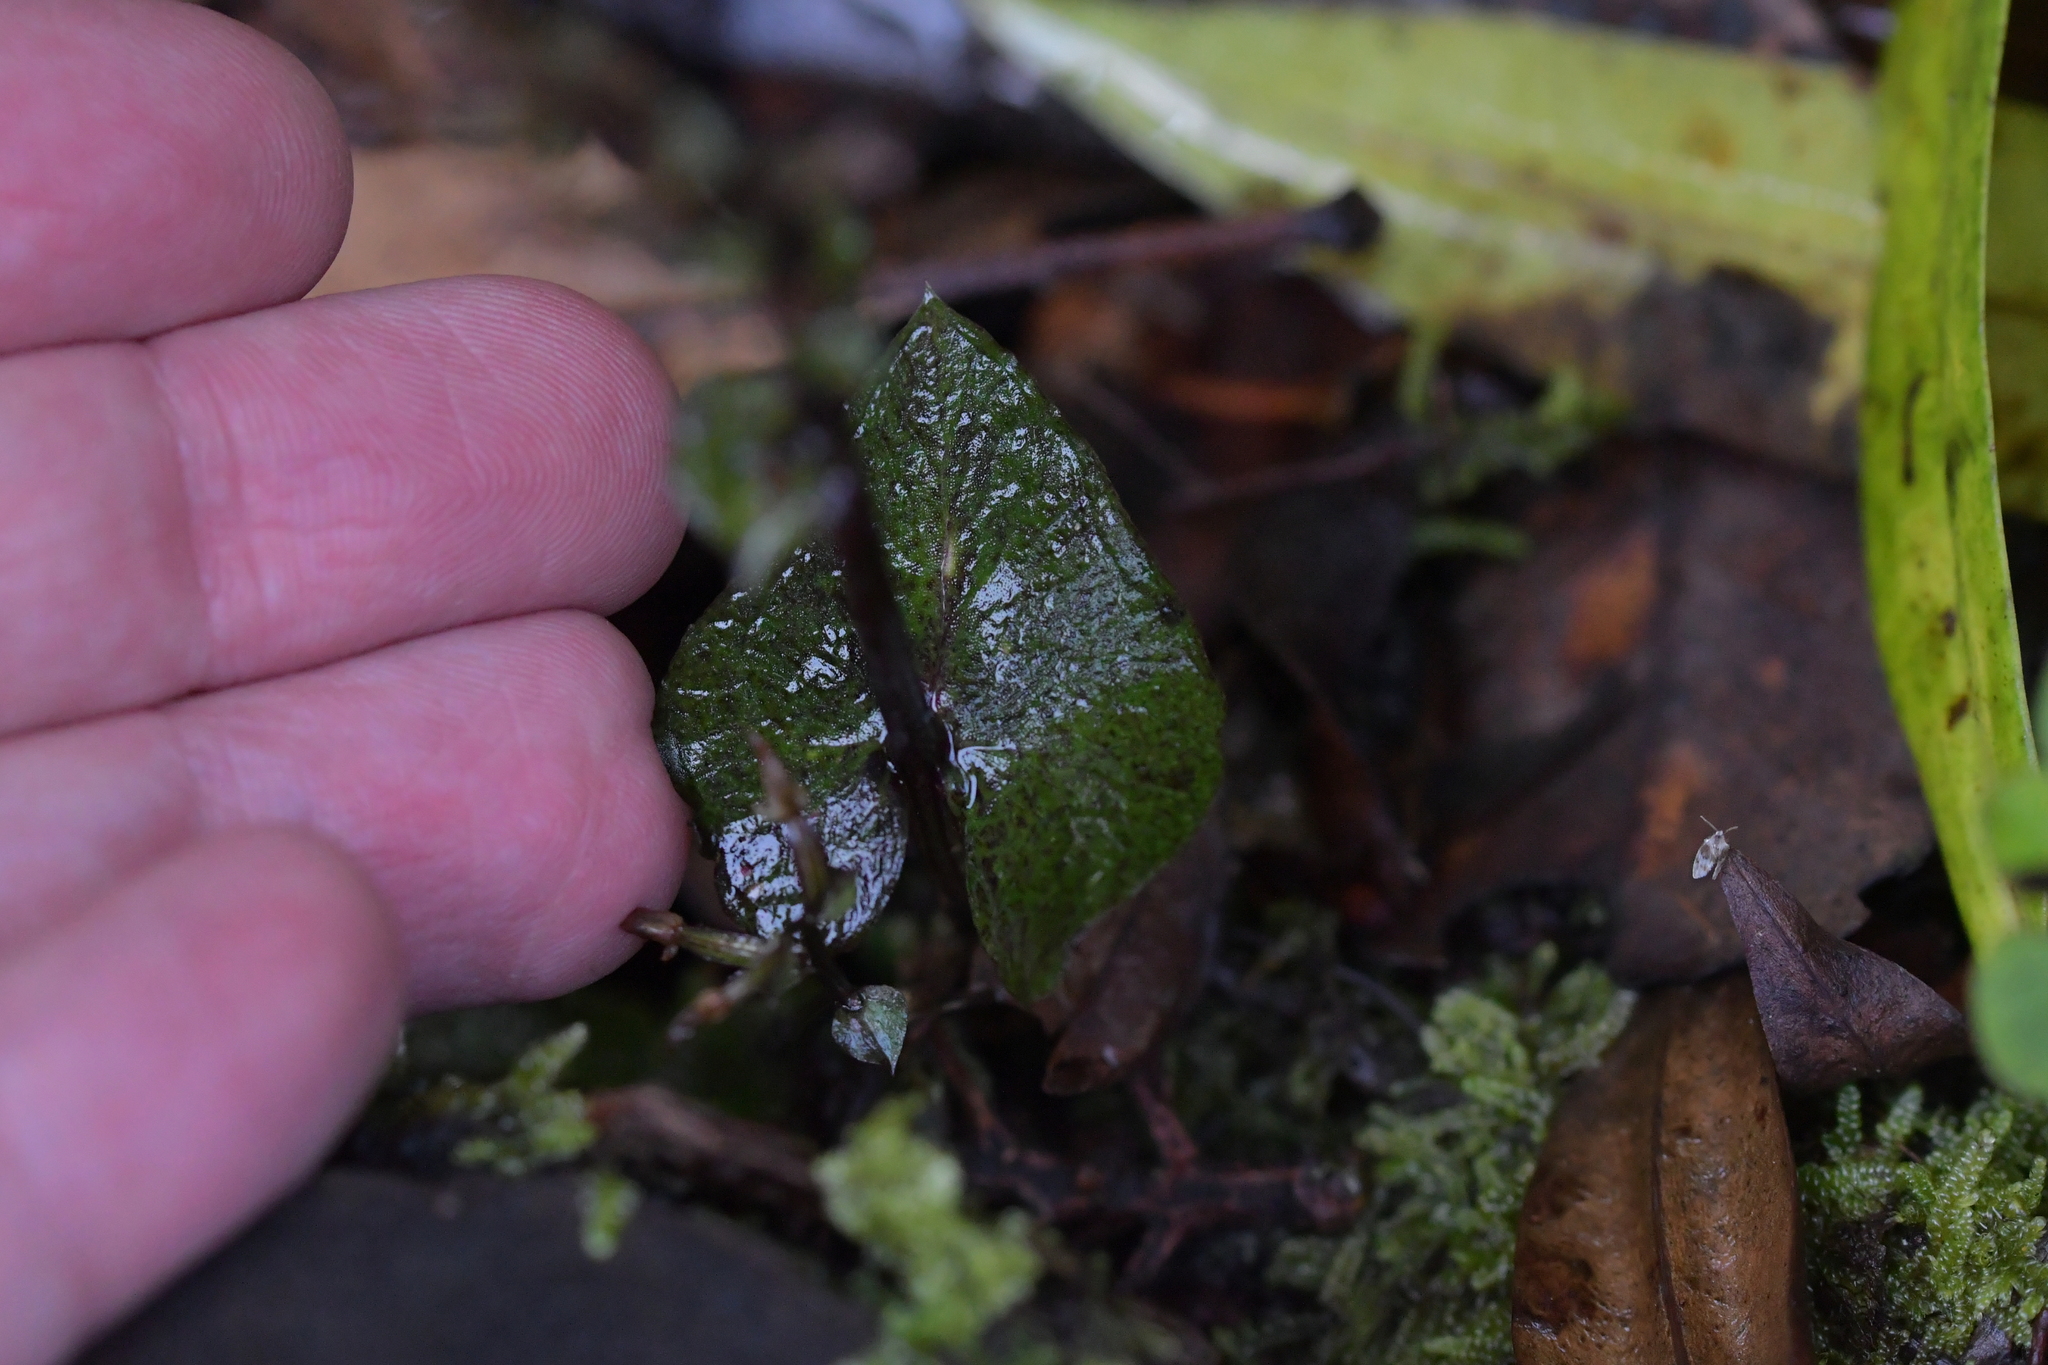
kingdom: Plantae
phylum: Tracheophyta
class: Liliopsida
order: Asparagales
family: Orchidaceae
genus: Acianthus
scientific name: Acianthus sinclairii
